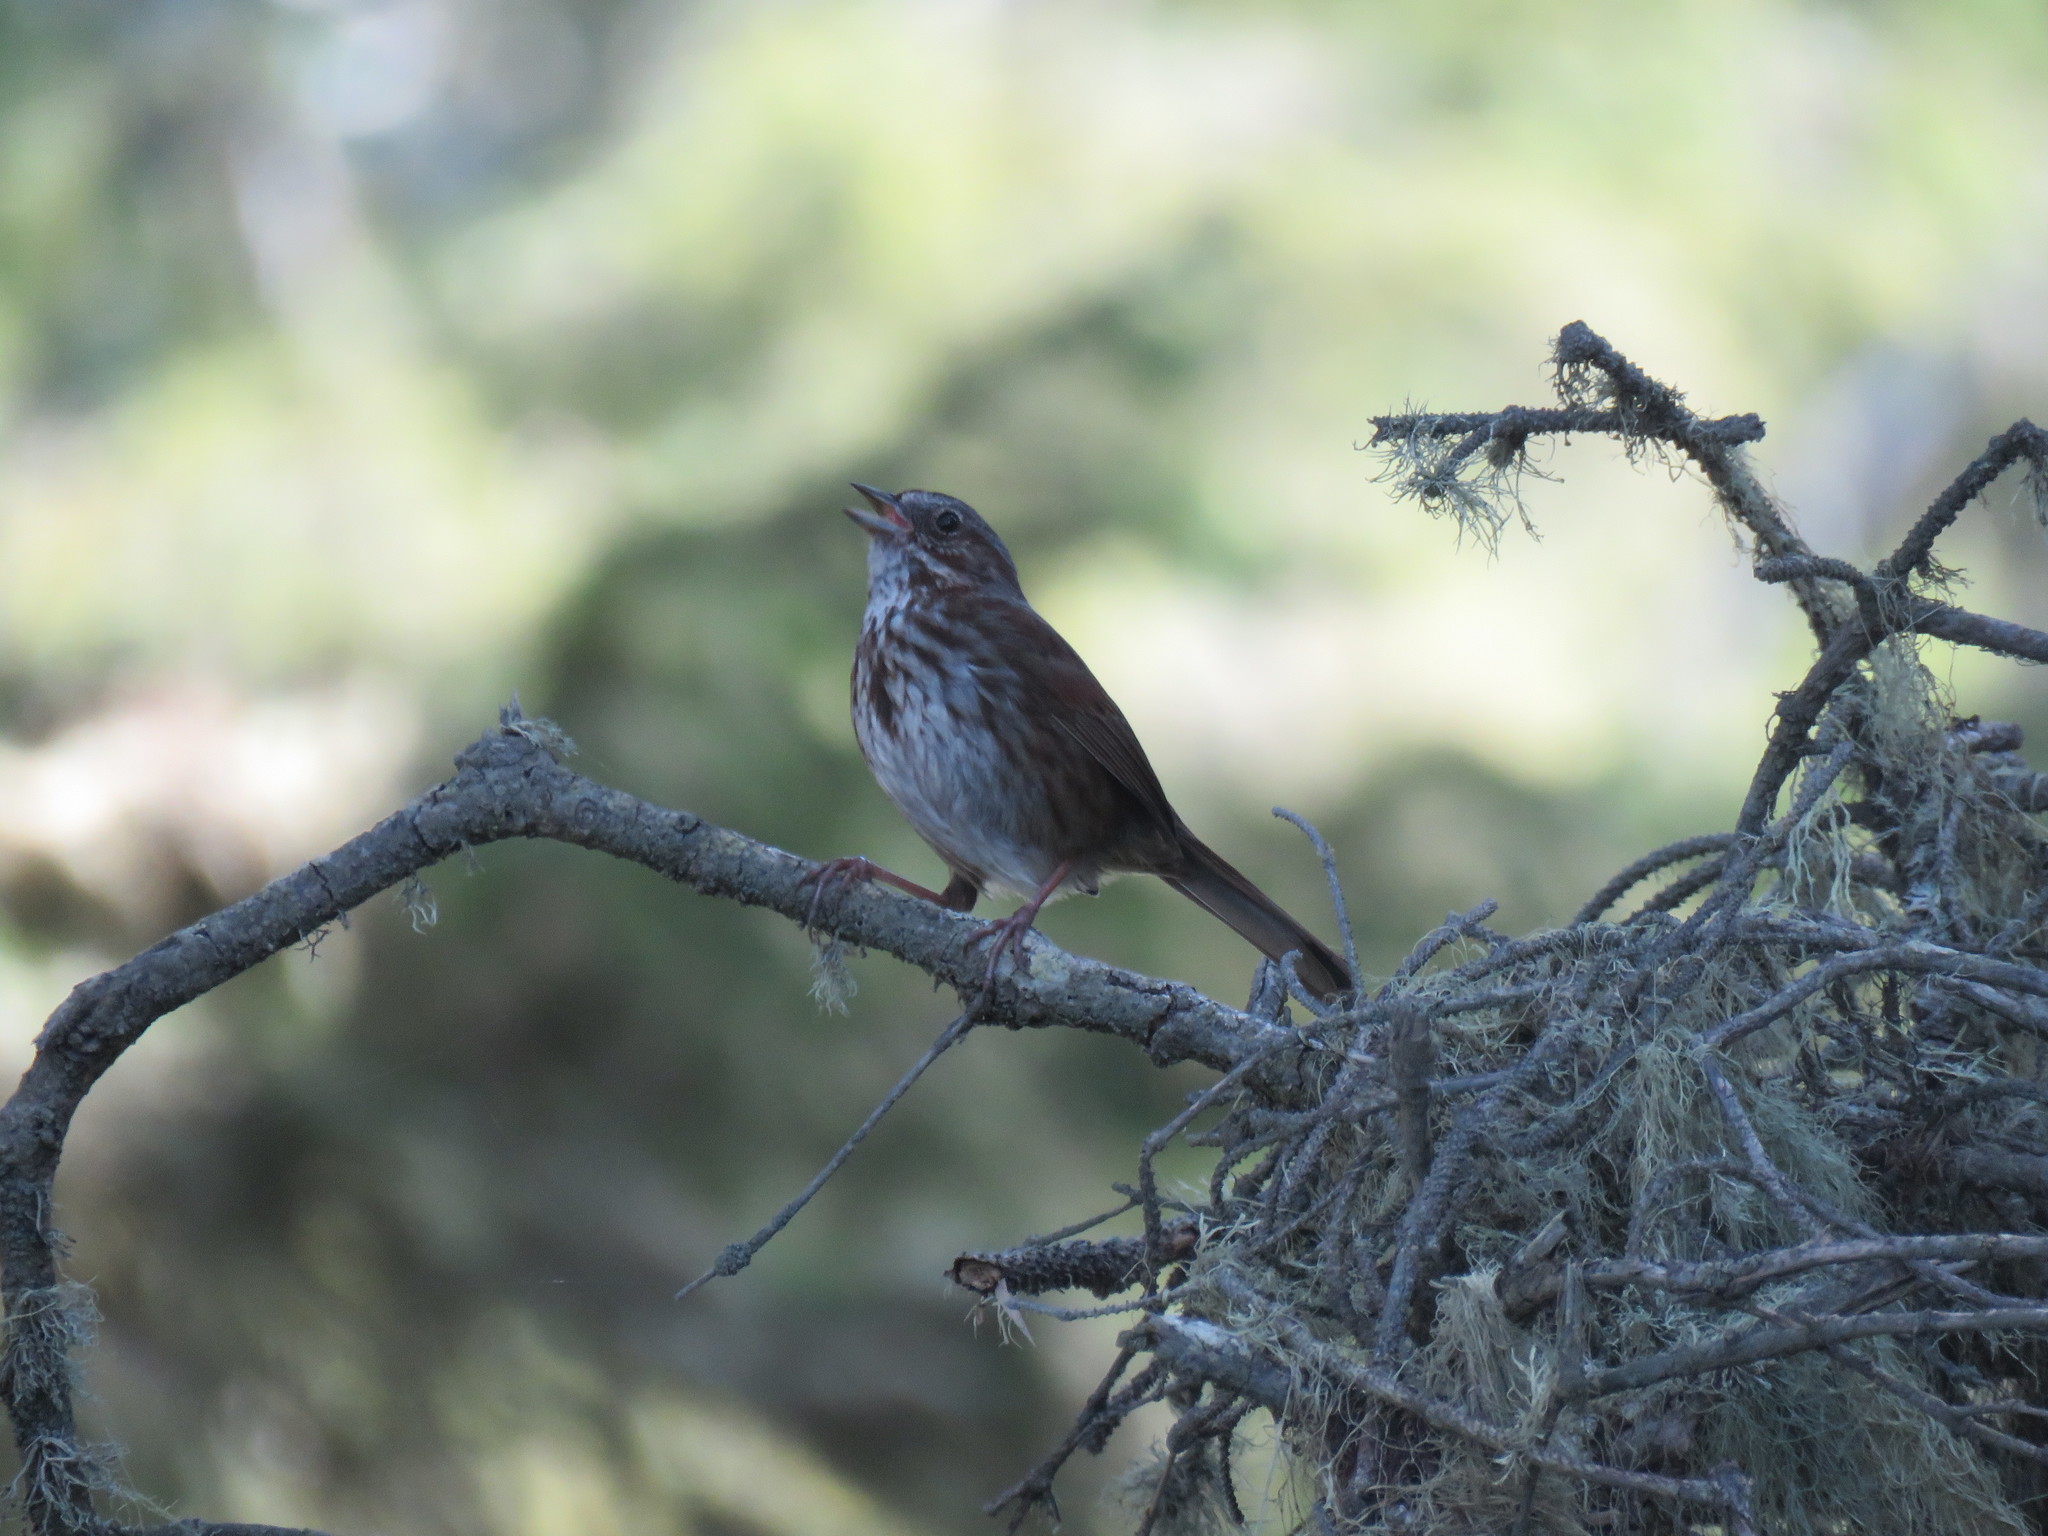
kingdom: Animalia
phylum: Chordata
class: Aves
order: Passeriformes
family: Passerellidae
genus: Melospiza
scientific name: Melospiza melodia
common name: Song sparrow
